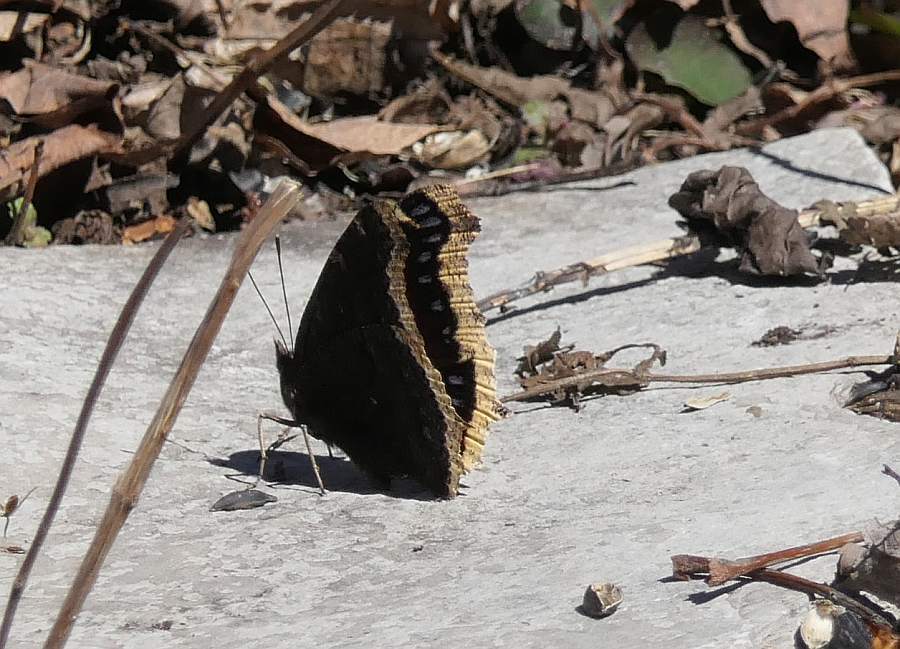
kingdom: Animalia
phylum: Arthropoda
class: Insecta
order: Lepidoptera
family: Nymphalidae
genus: Nymphalis
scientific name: Nymphalis antiopa
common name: Camberwell beauty
